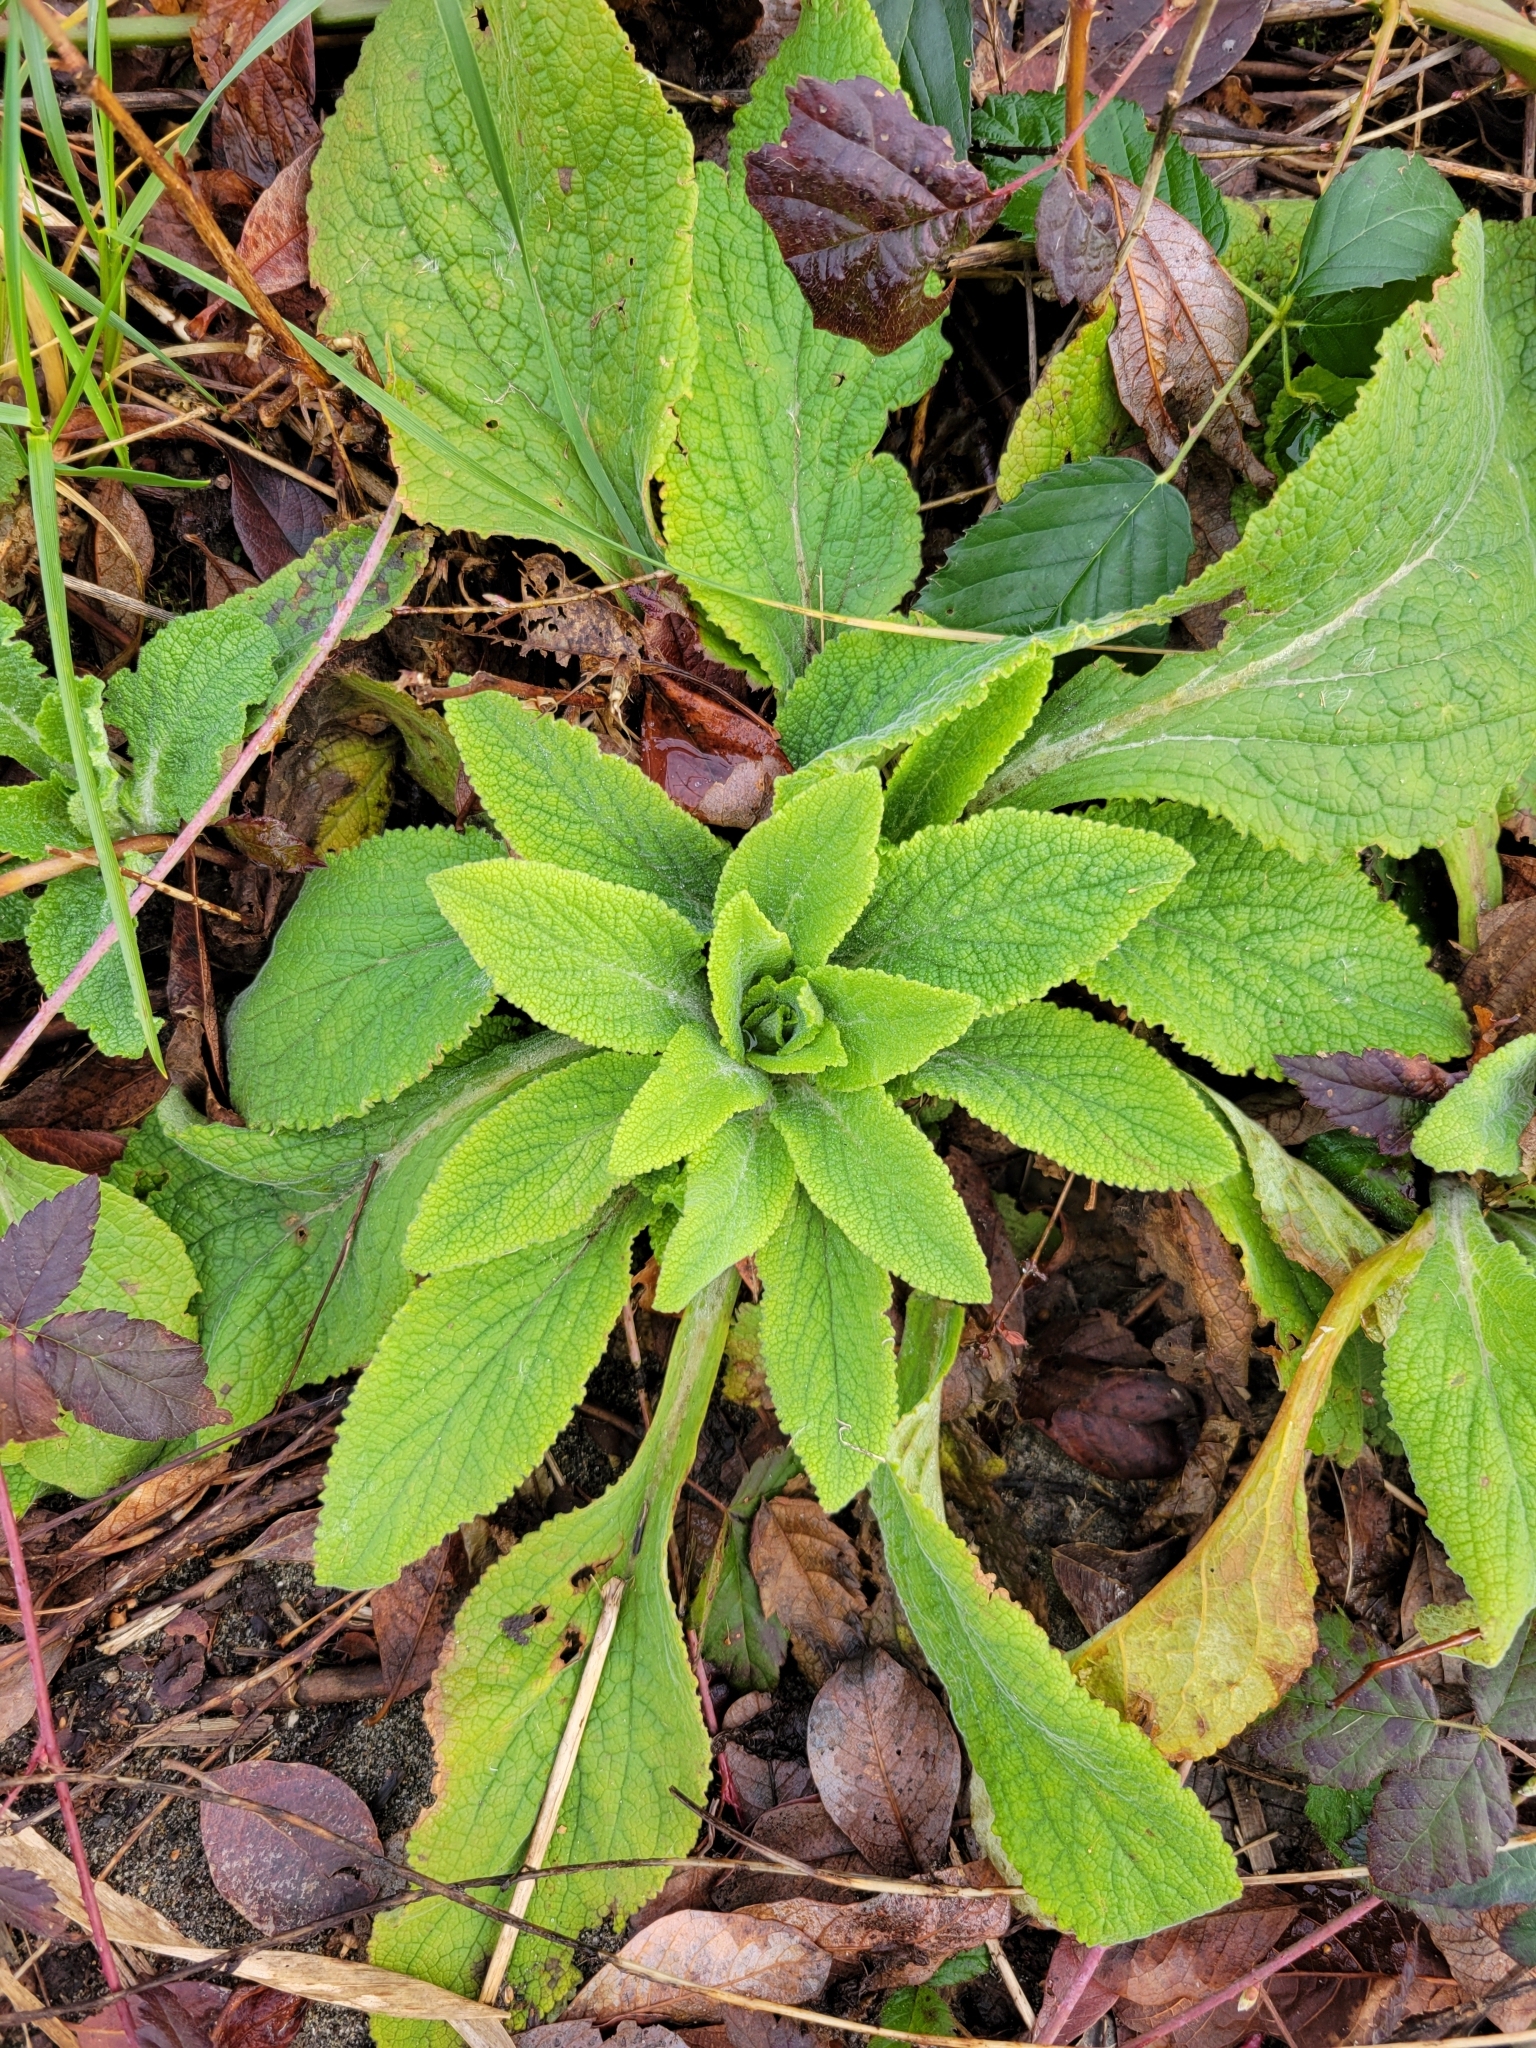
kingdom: Plantae
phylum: Tracheophyta
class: Magnoliopsida
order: Lamiales
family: Plantaginaceae
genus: Digitalis
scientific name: Digitalis purpurea
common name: Foxglove
